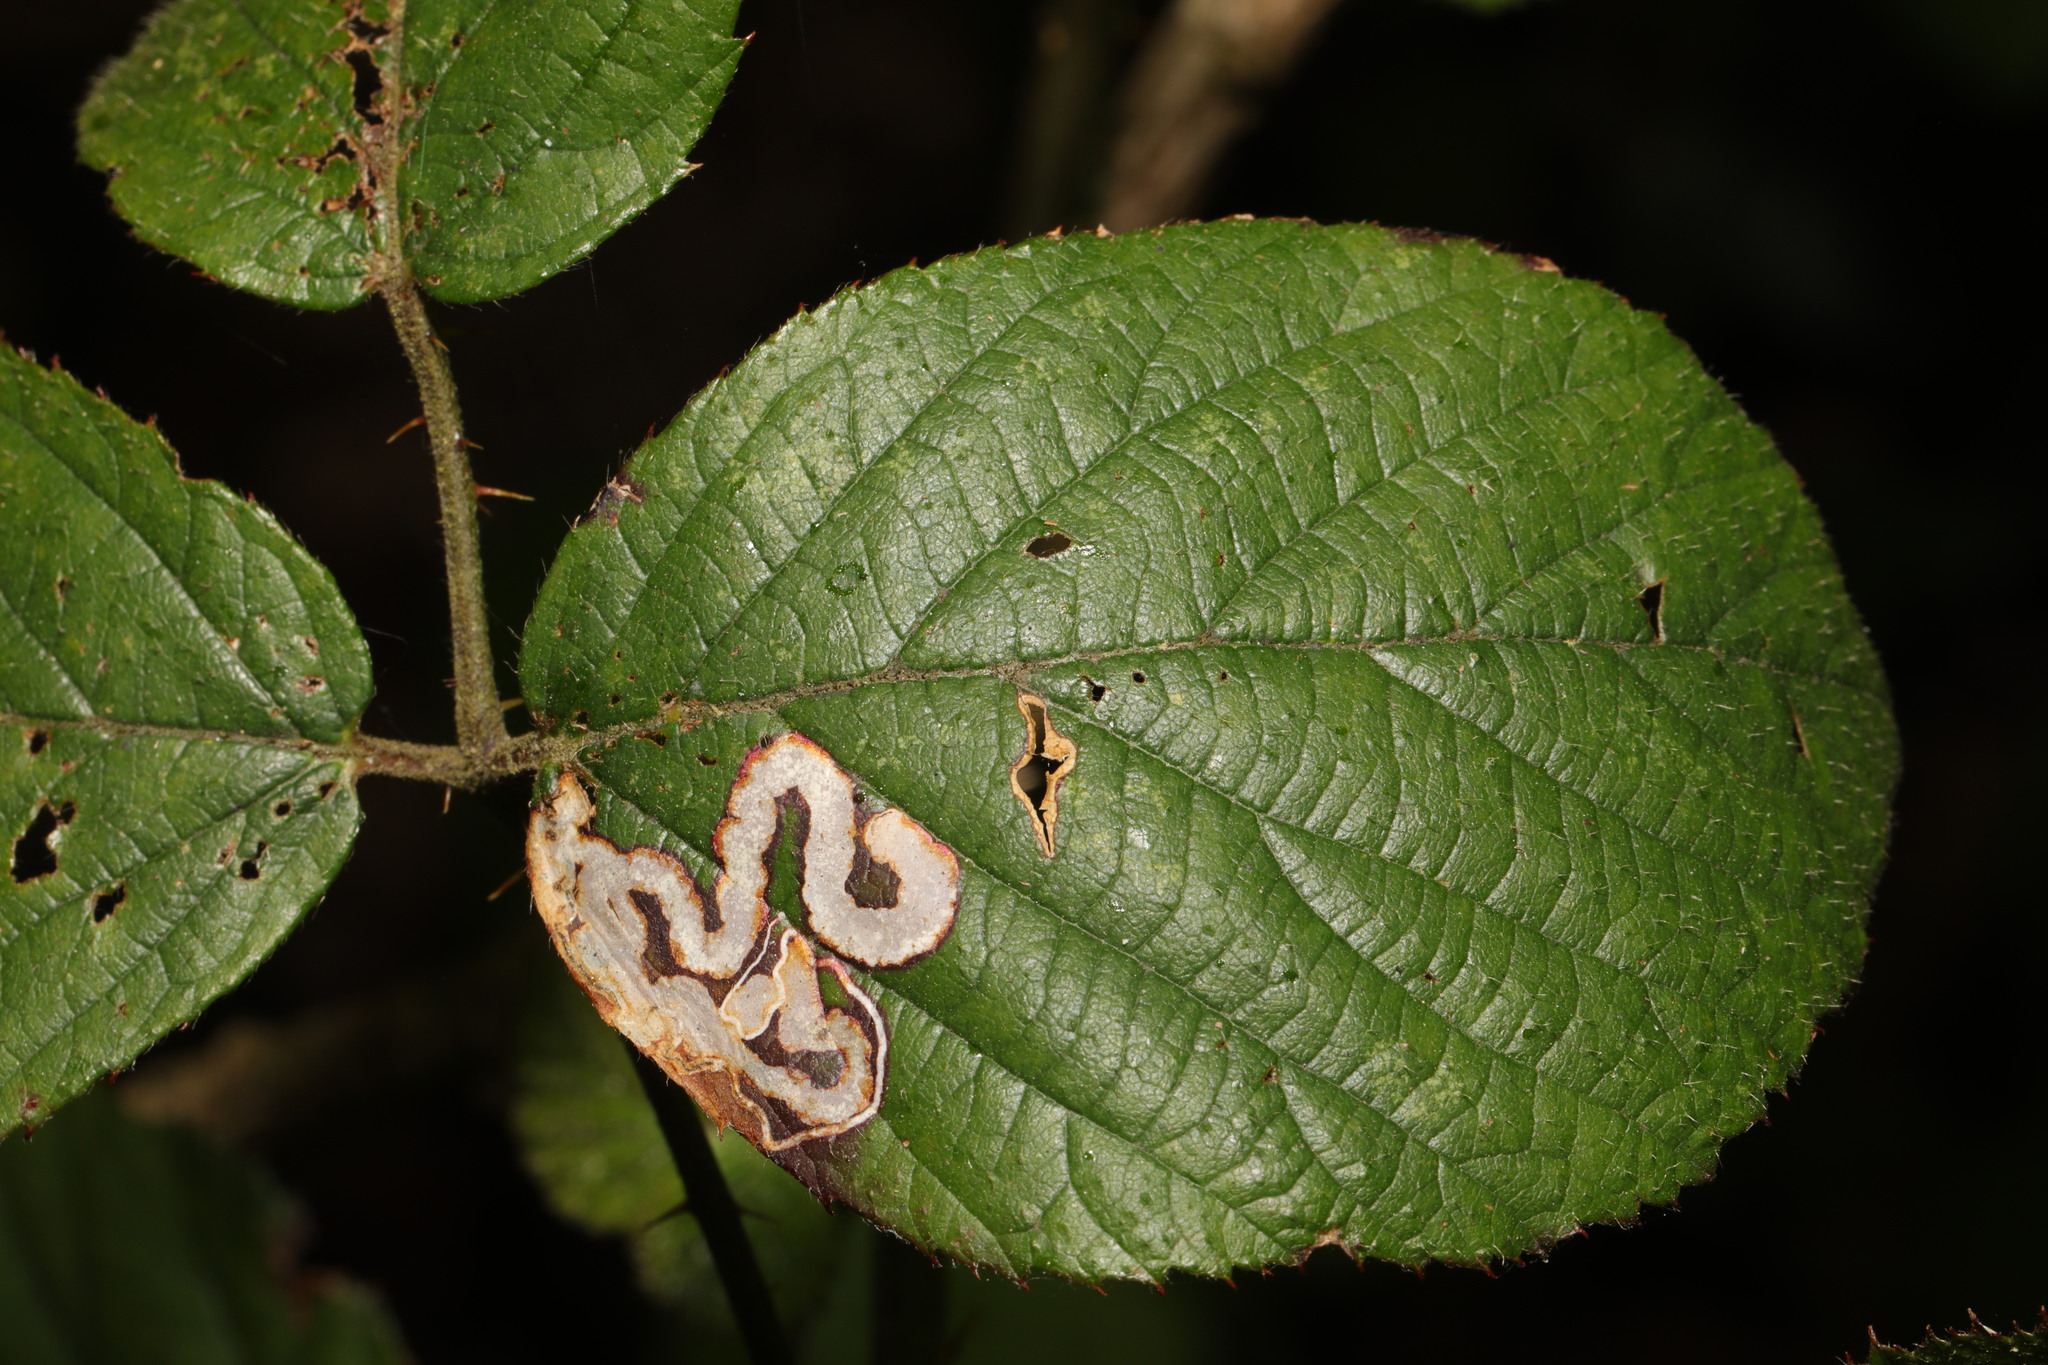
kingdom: Animalia
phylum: Arthropoda
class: Insecta
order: Lepidoptera
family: Nepticulidae
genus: Stigmella
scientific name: Stigmella aurella
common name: Golden pigmy
